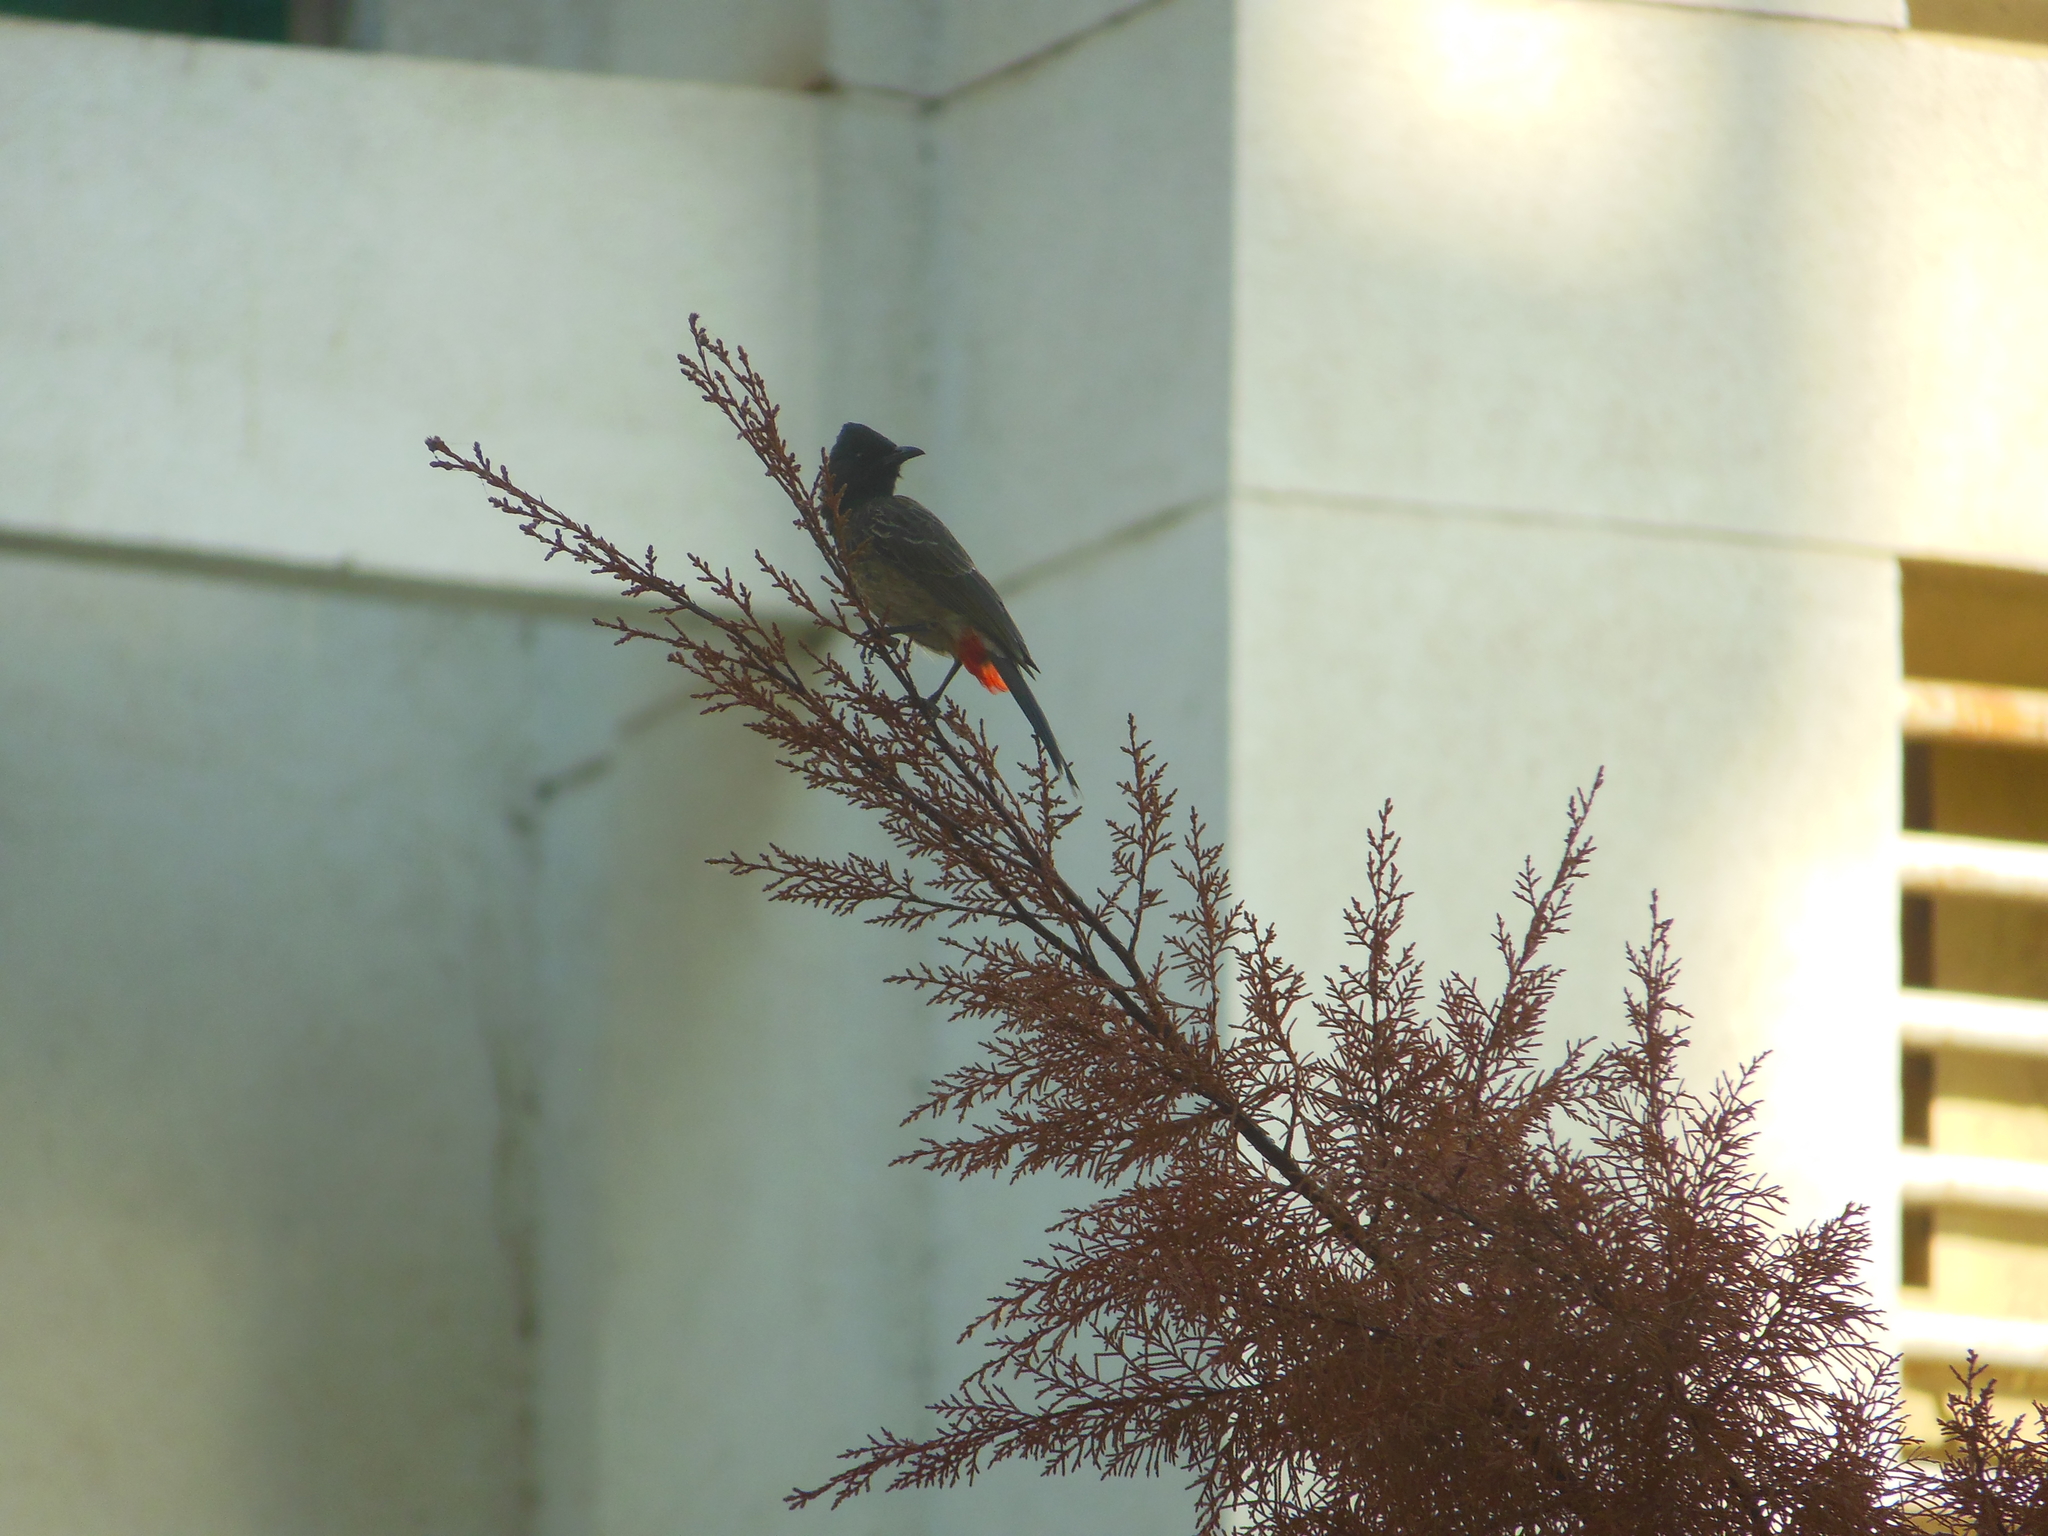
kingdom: Animalia
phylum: Chordata
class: Aves
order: Passeriformes
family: Pycnonotidae
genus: Pycnonotus
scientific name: Pycnonotus cafer
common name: Red-vented bulbul
